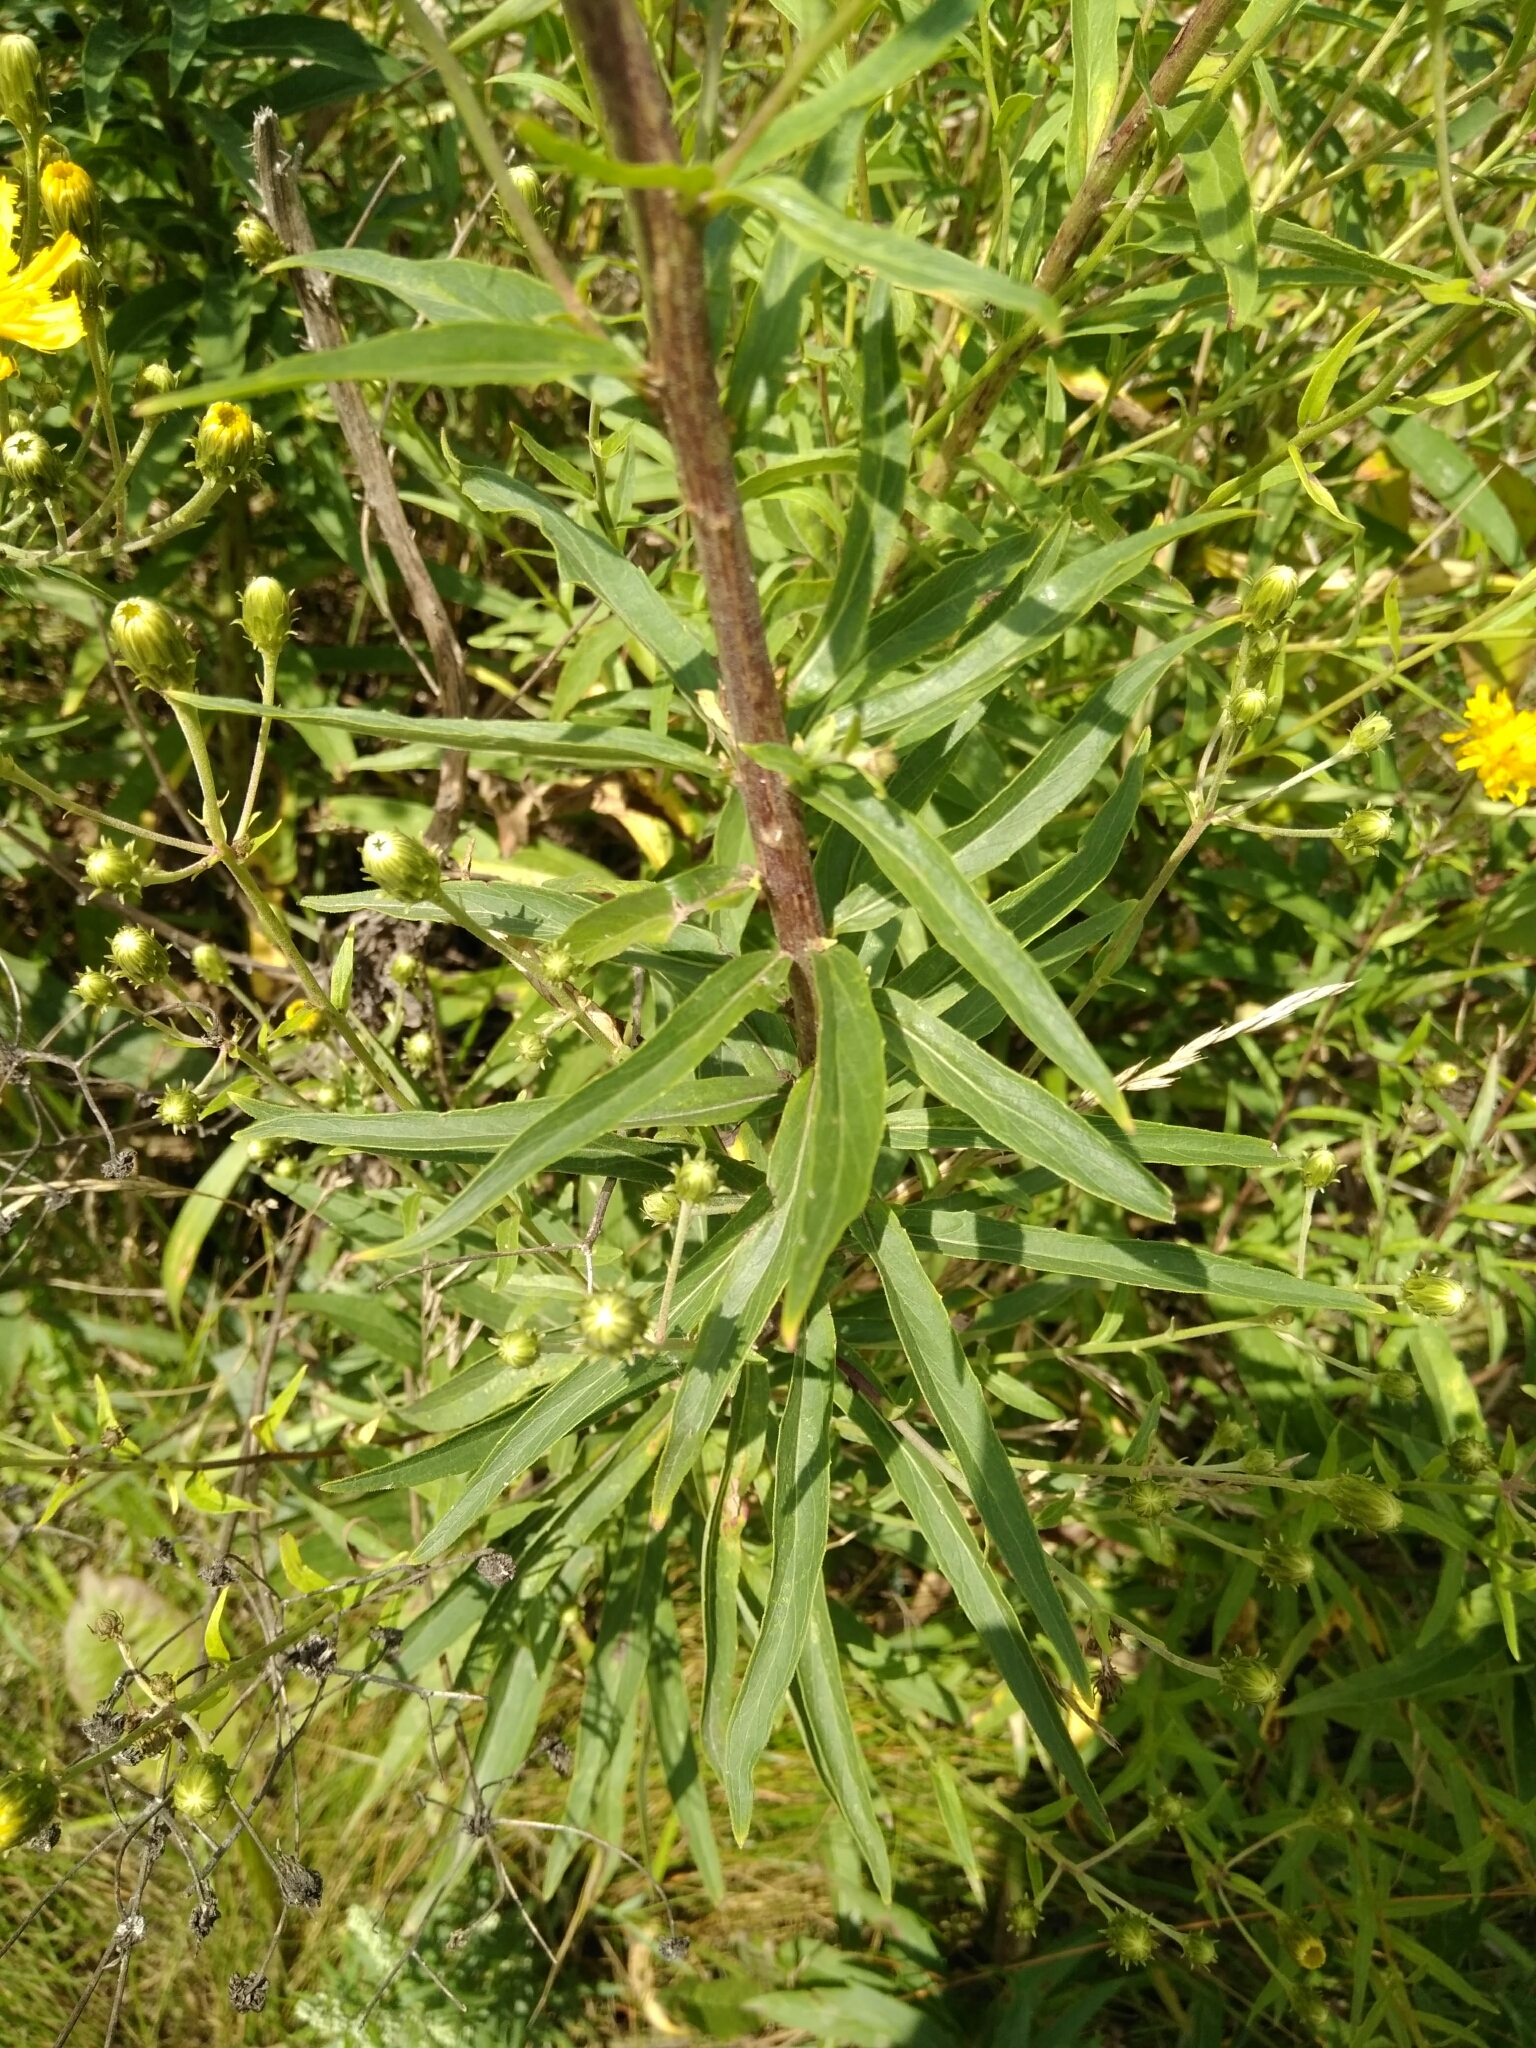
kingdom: Plantae
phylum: Tracheophyta
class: Magnoliopsida
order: Asterales
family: Asteraceae
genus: Hieracium
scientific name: Hieracium umbellatum
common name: Northern hawkweed
